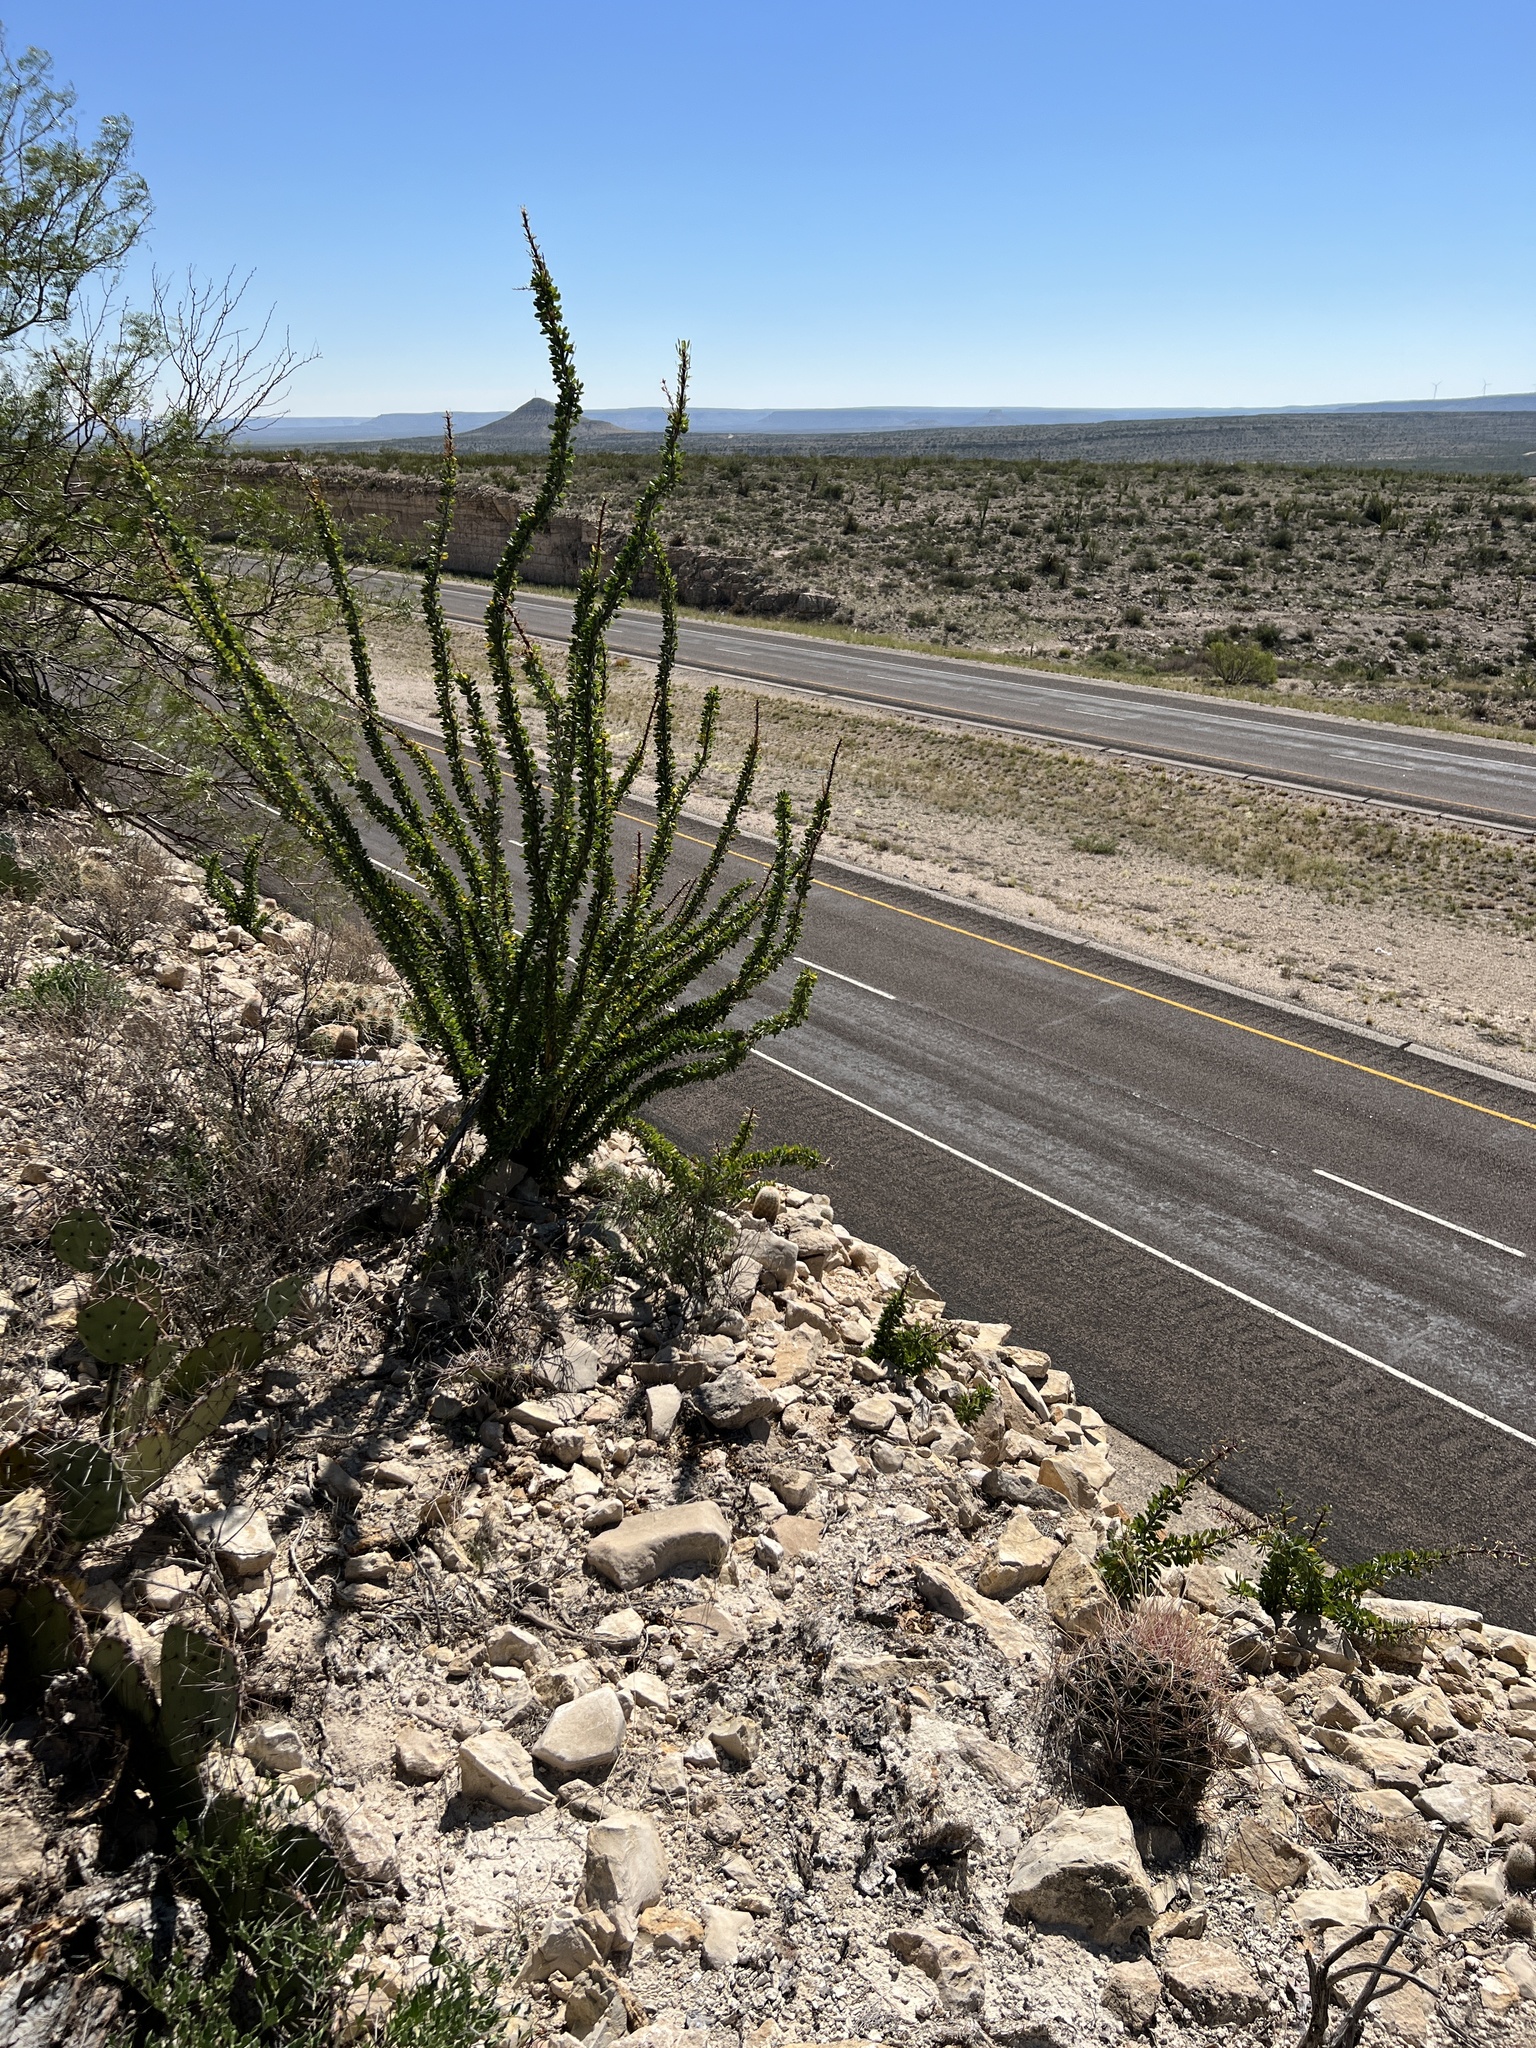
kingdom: Plantae
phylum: Tracheophyta
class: Magnoliopsida
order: Ericales
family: Fouquieriaceae
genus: Fouquieria
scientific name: Fouquieria splendens
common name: Vine-cactus
